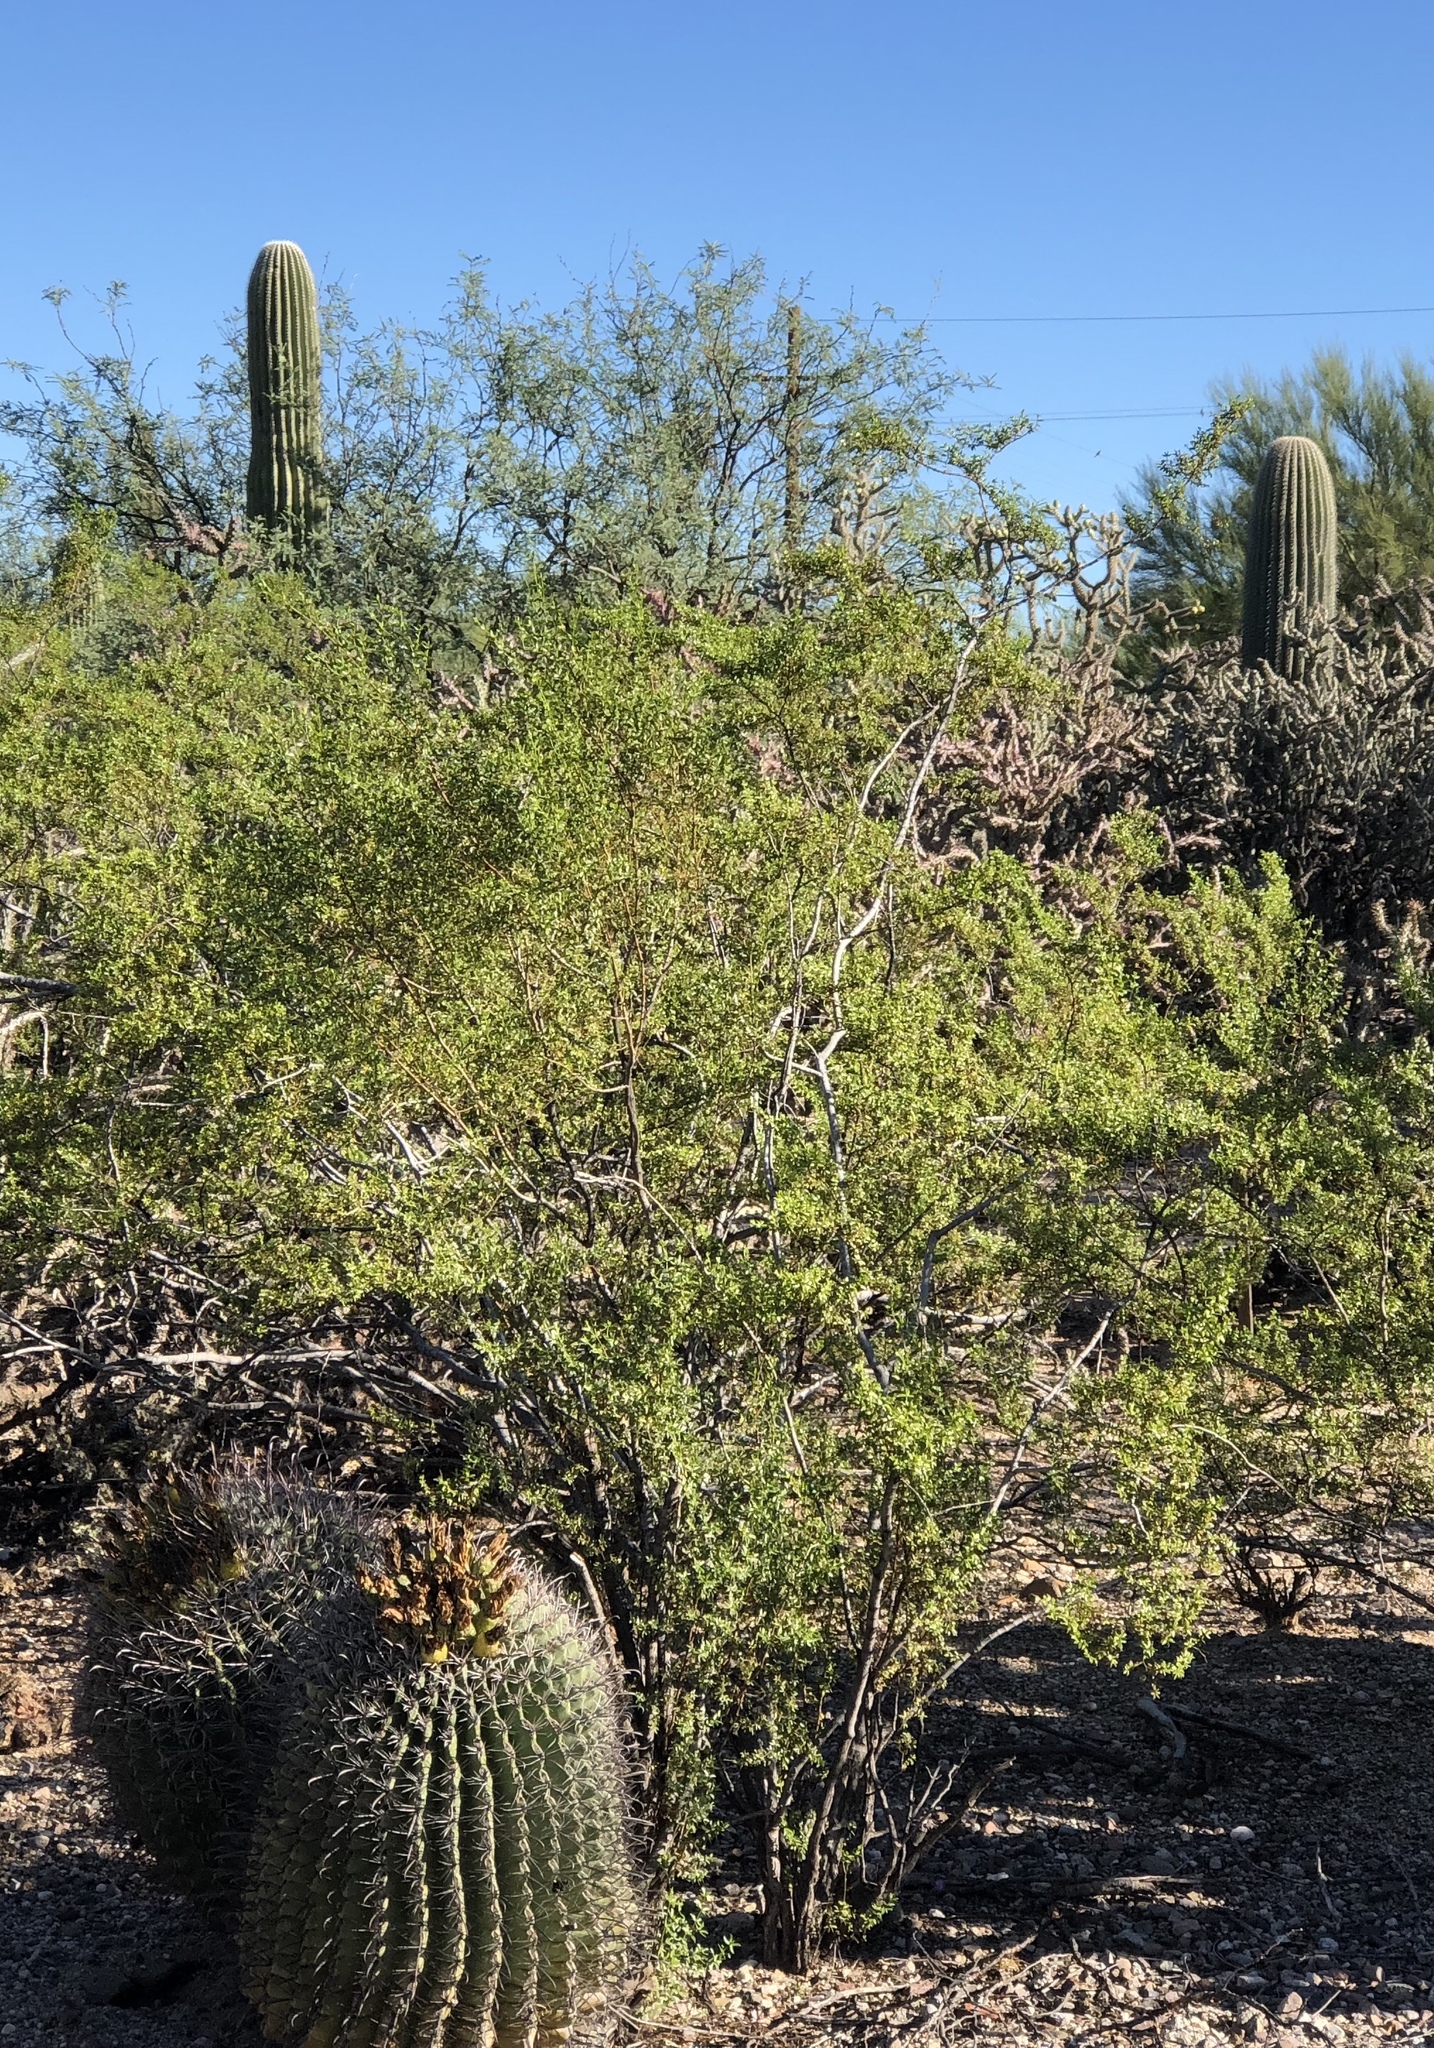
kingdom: Plantae
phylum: Tracheophyta
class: Magnoliopsida
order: Zygophyllales
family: Zygophyllaceae
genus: Larrea
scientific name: Larrea tridentata
